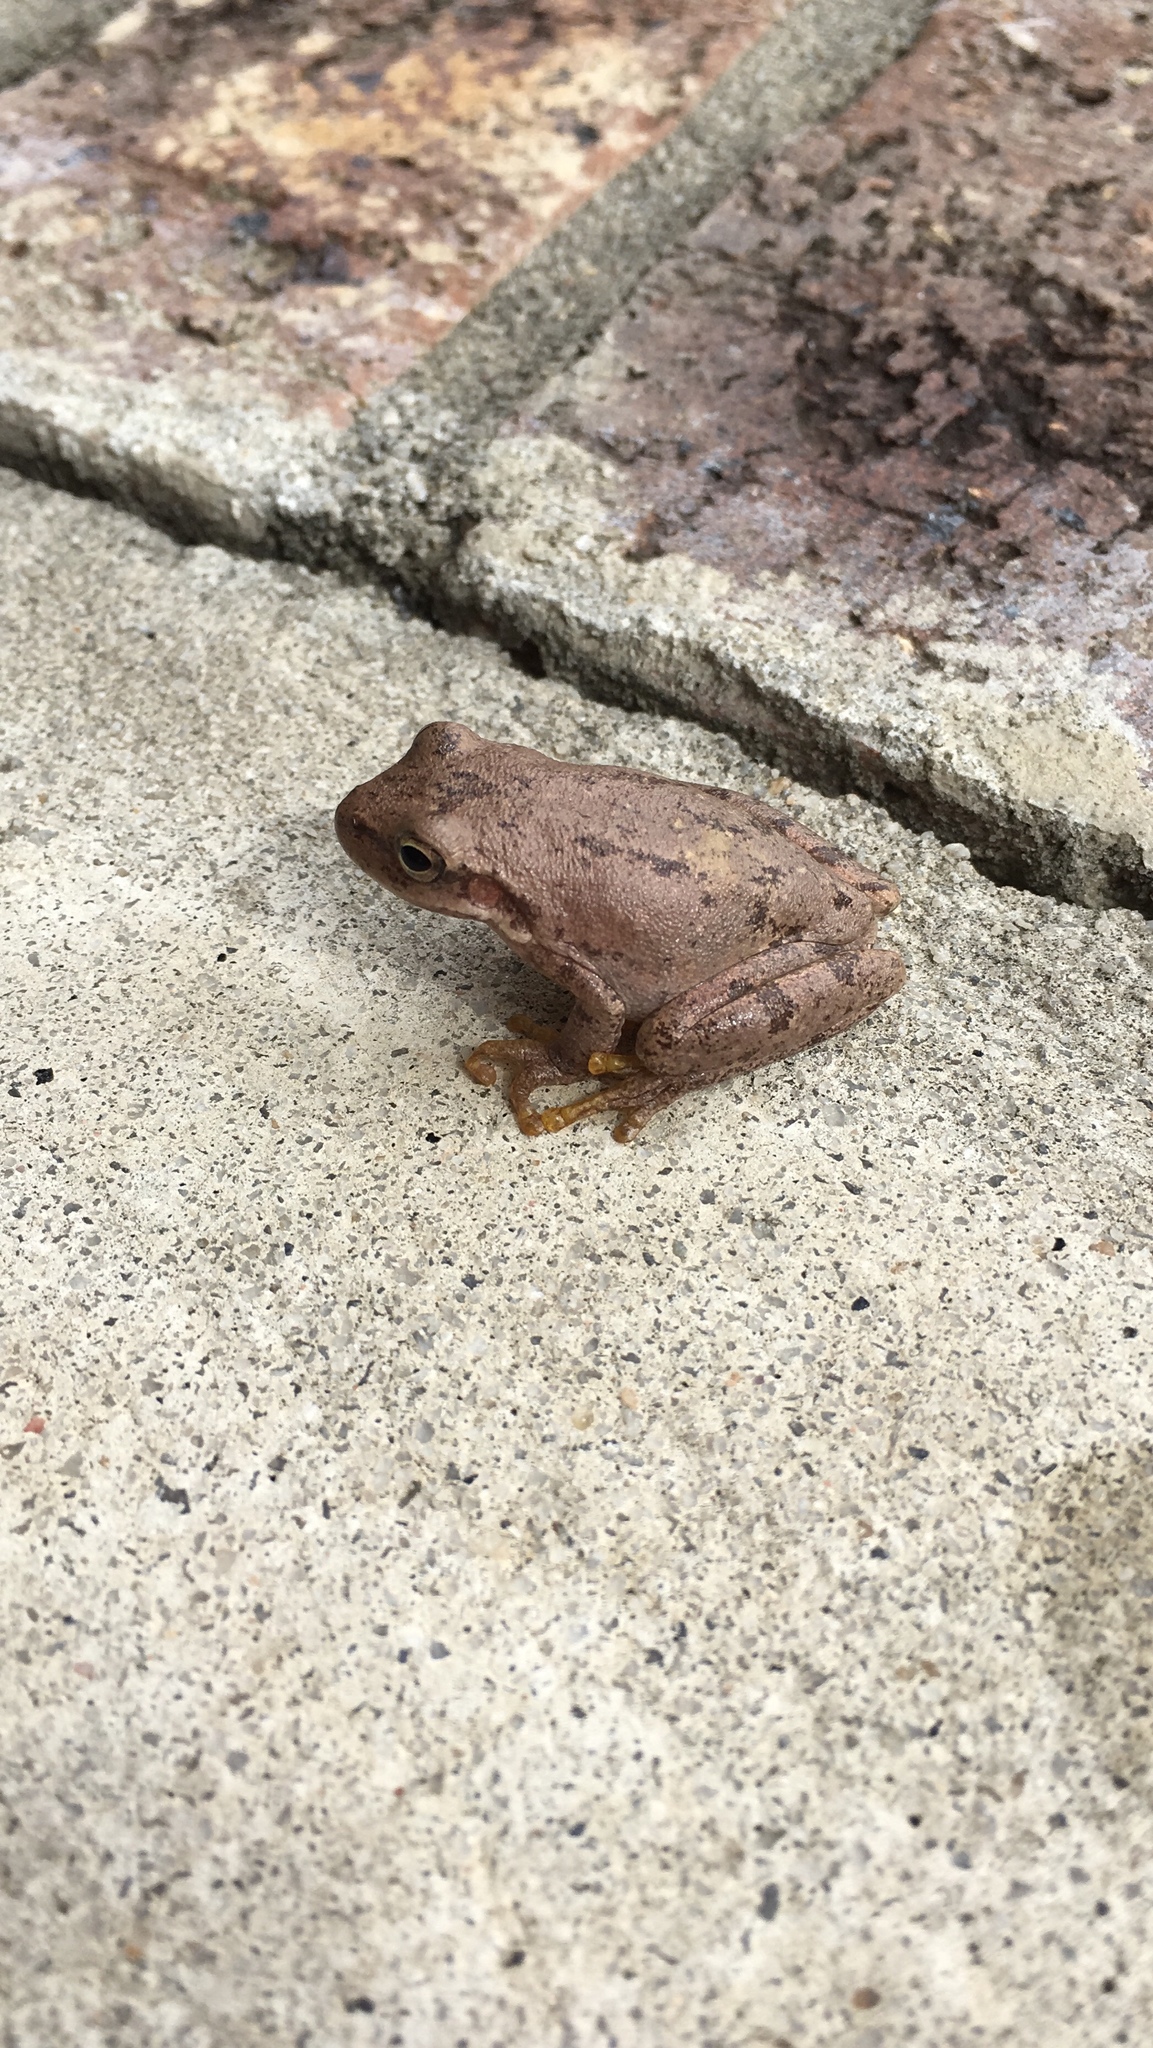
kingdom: Animalia
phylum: Chordata
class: Amphibia
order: Anura
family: Hylidae
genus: Dryophytes
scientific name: Dryophytes squirellus
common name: Squirrel treefrog
